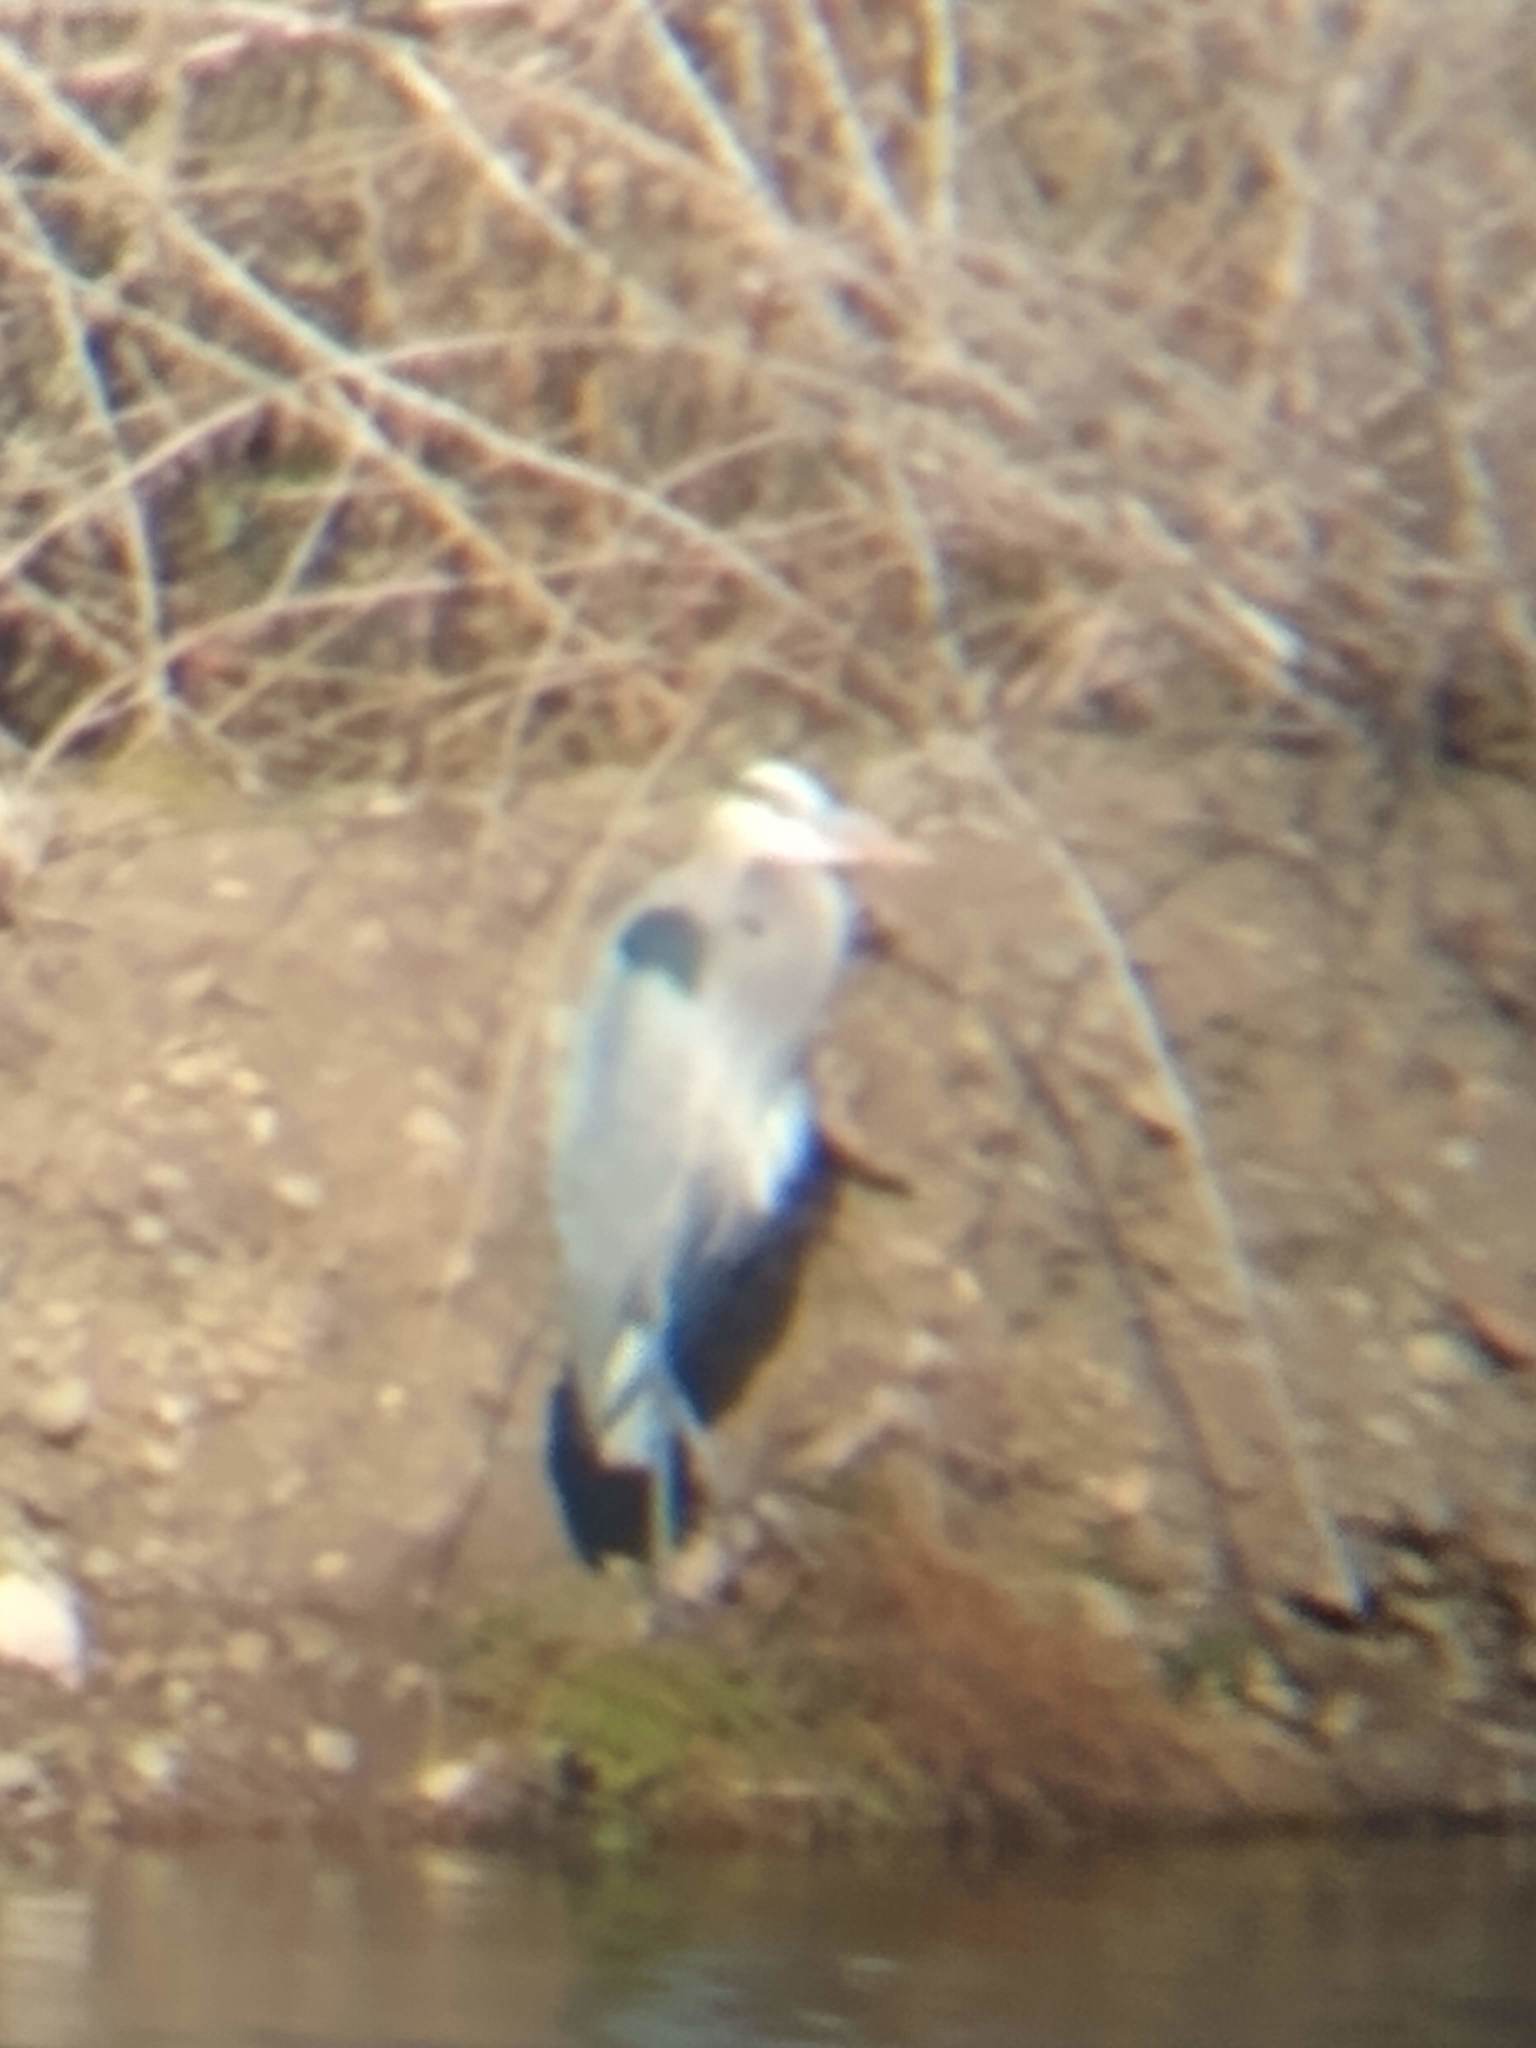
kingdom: Animalia
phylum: Chordata
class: Aves
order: Pelecaniformes
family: Ardeidae
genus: Ardea
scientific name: Ardea herodias
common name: Great blue heron
